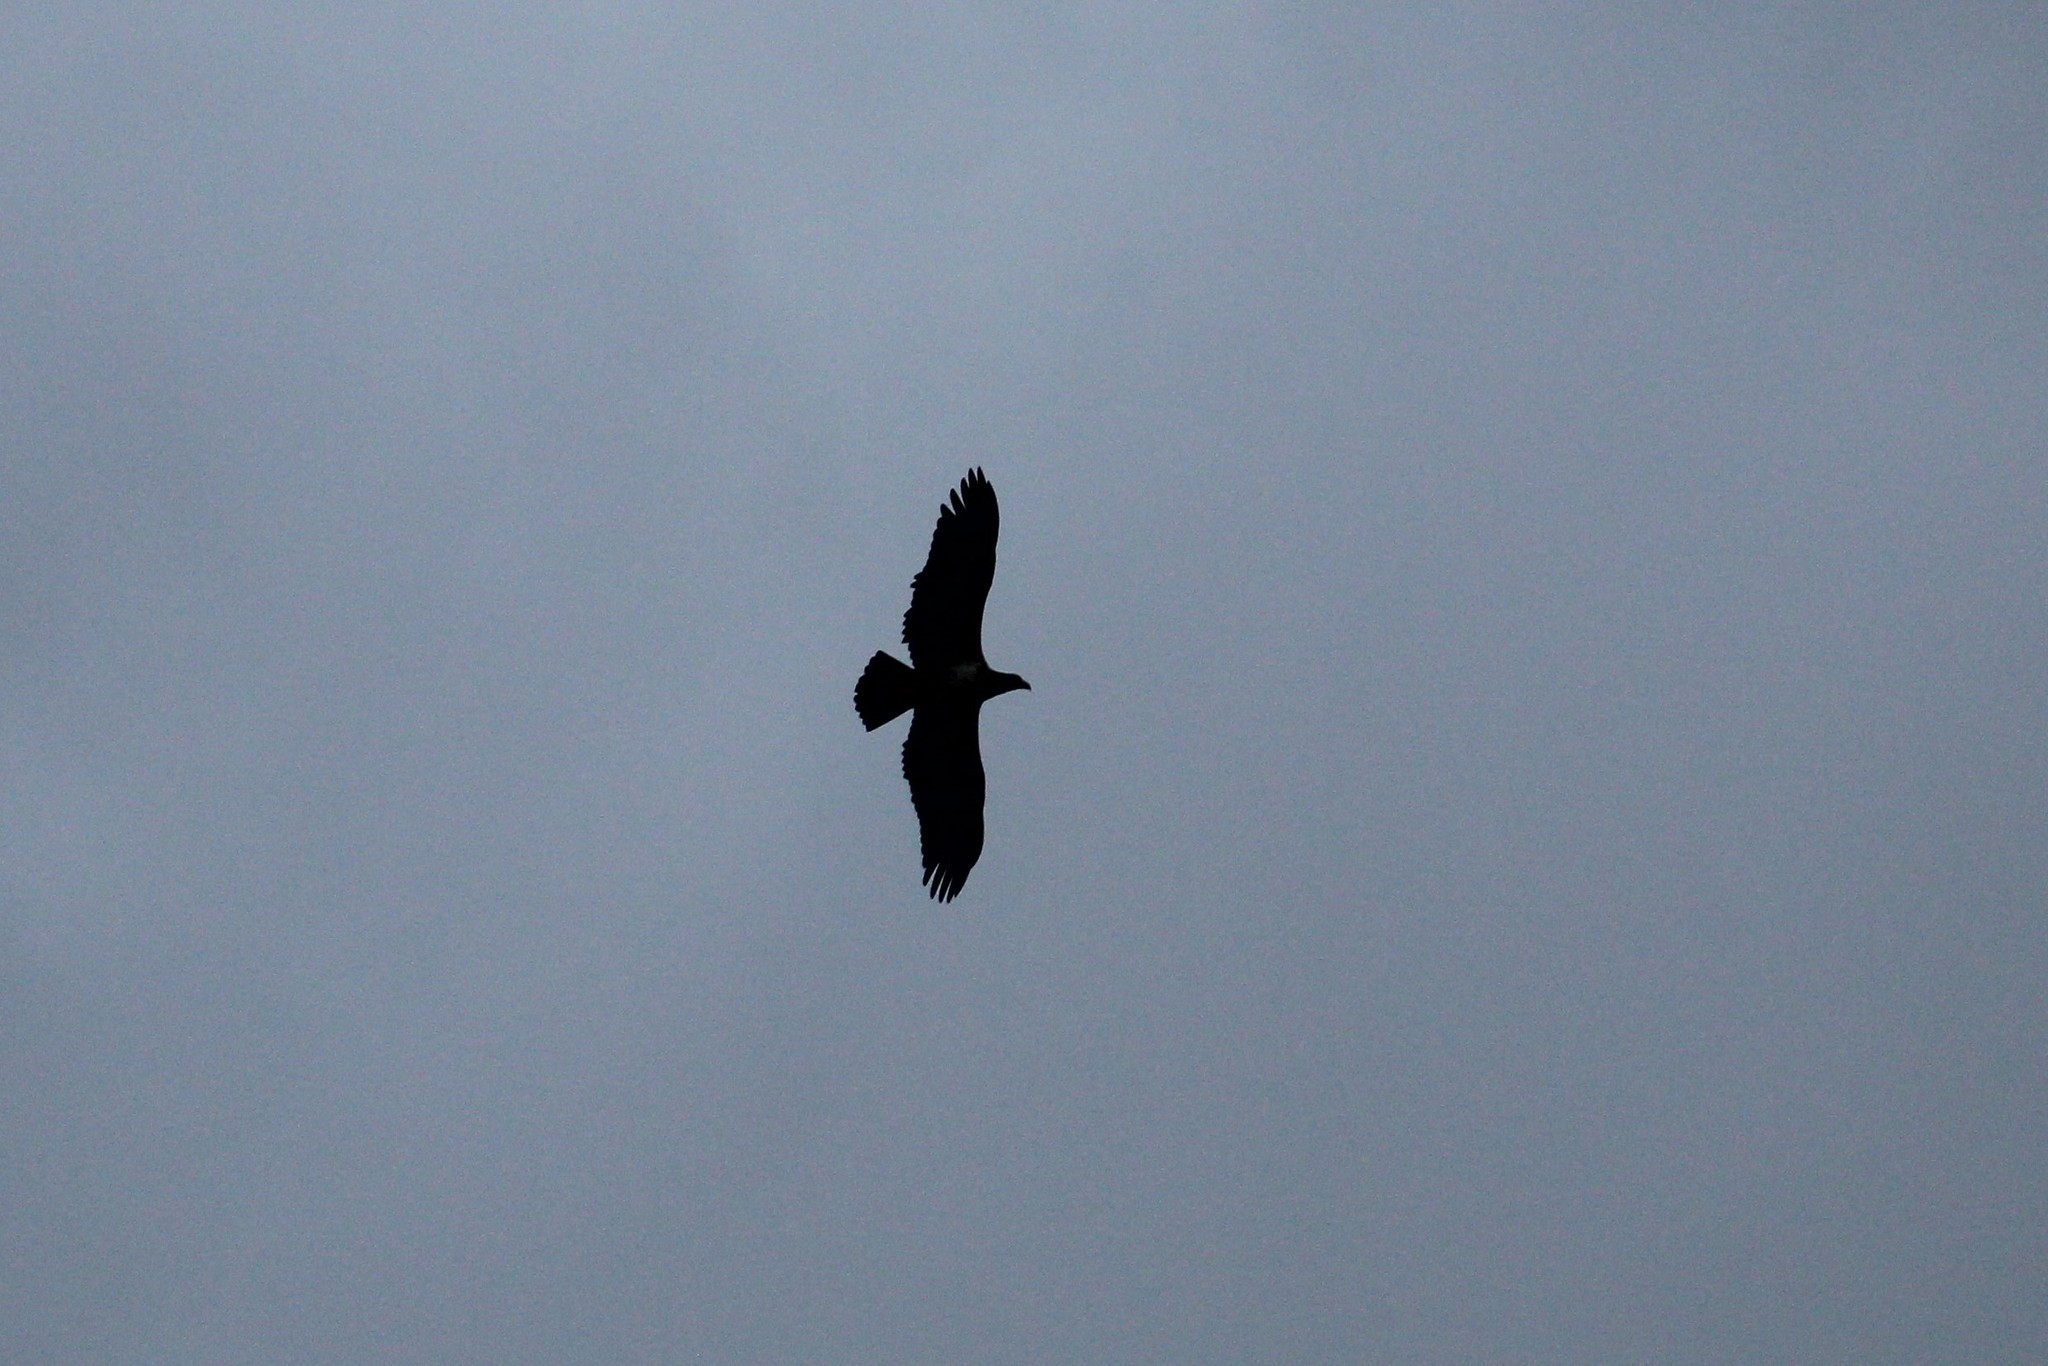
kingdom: Animalia
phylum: Chordata
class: Aves
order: Accipitriformes
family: Accipitridae
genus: Haliaeetus
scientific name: Haliaeetus leucocephalus
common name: Bald eagle
